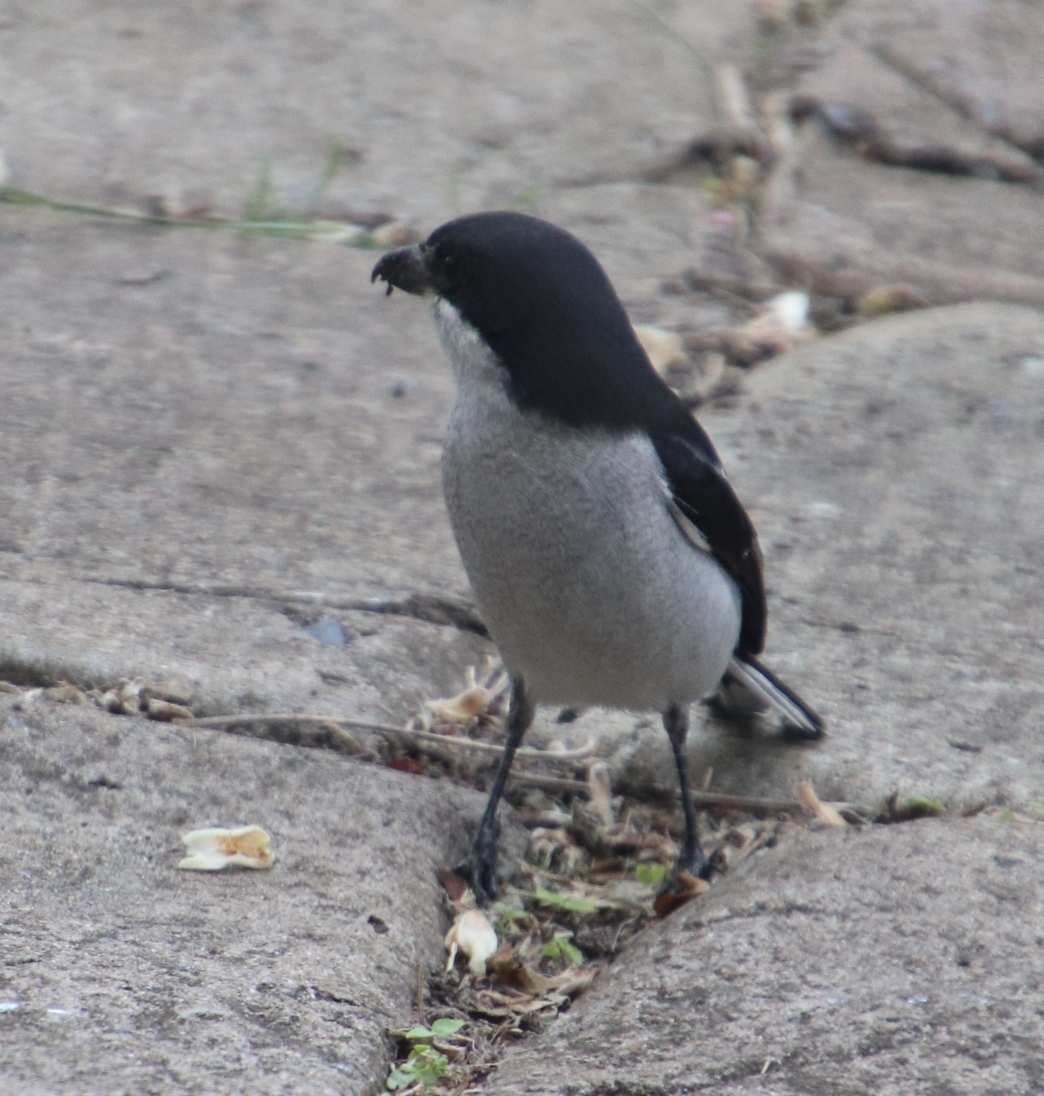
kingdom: Animalia
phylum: Chordata
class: Aves
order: Passeriformes
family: Laniidae
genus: Lanius
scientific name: Lanius collaris
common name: Southern fiscal
